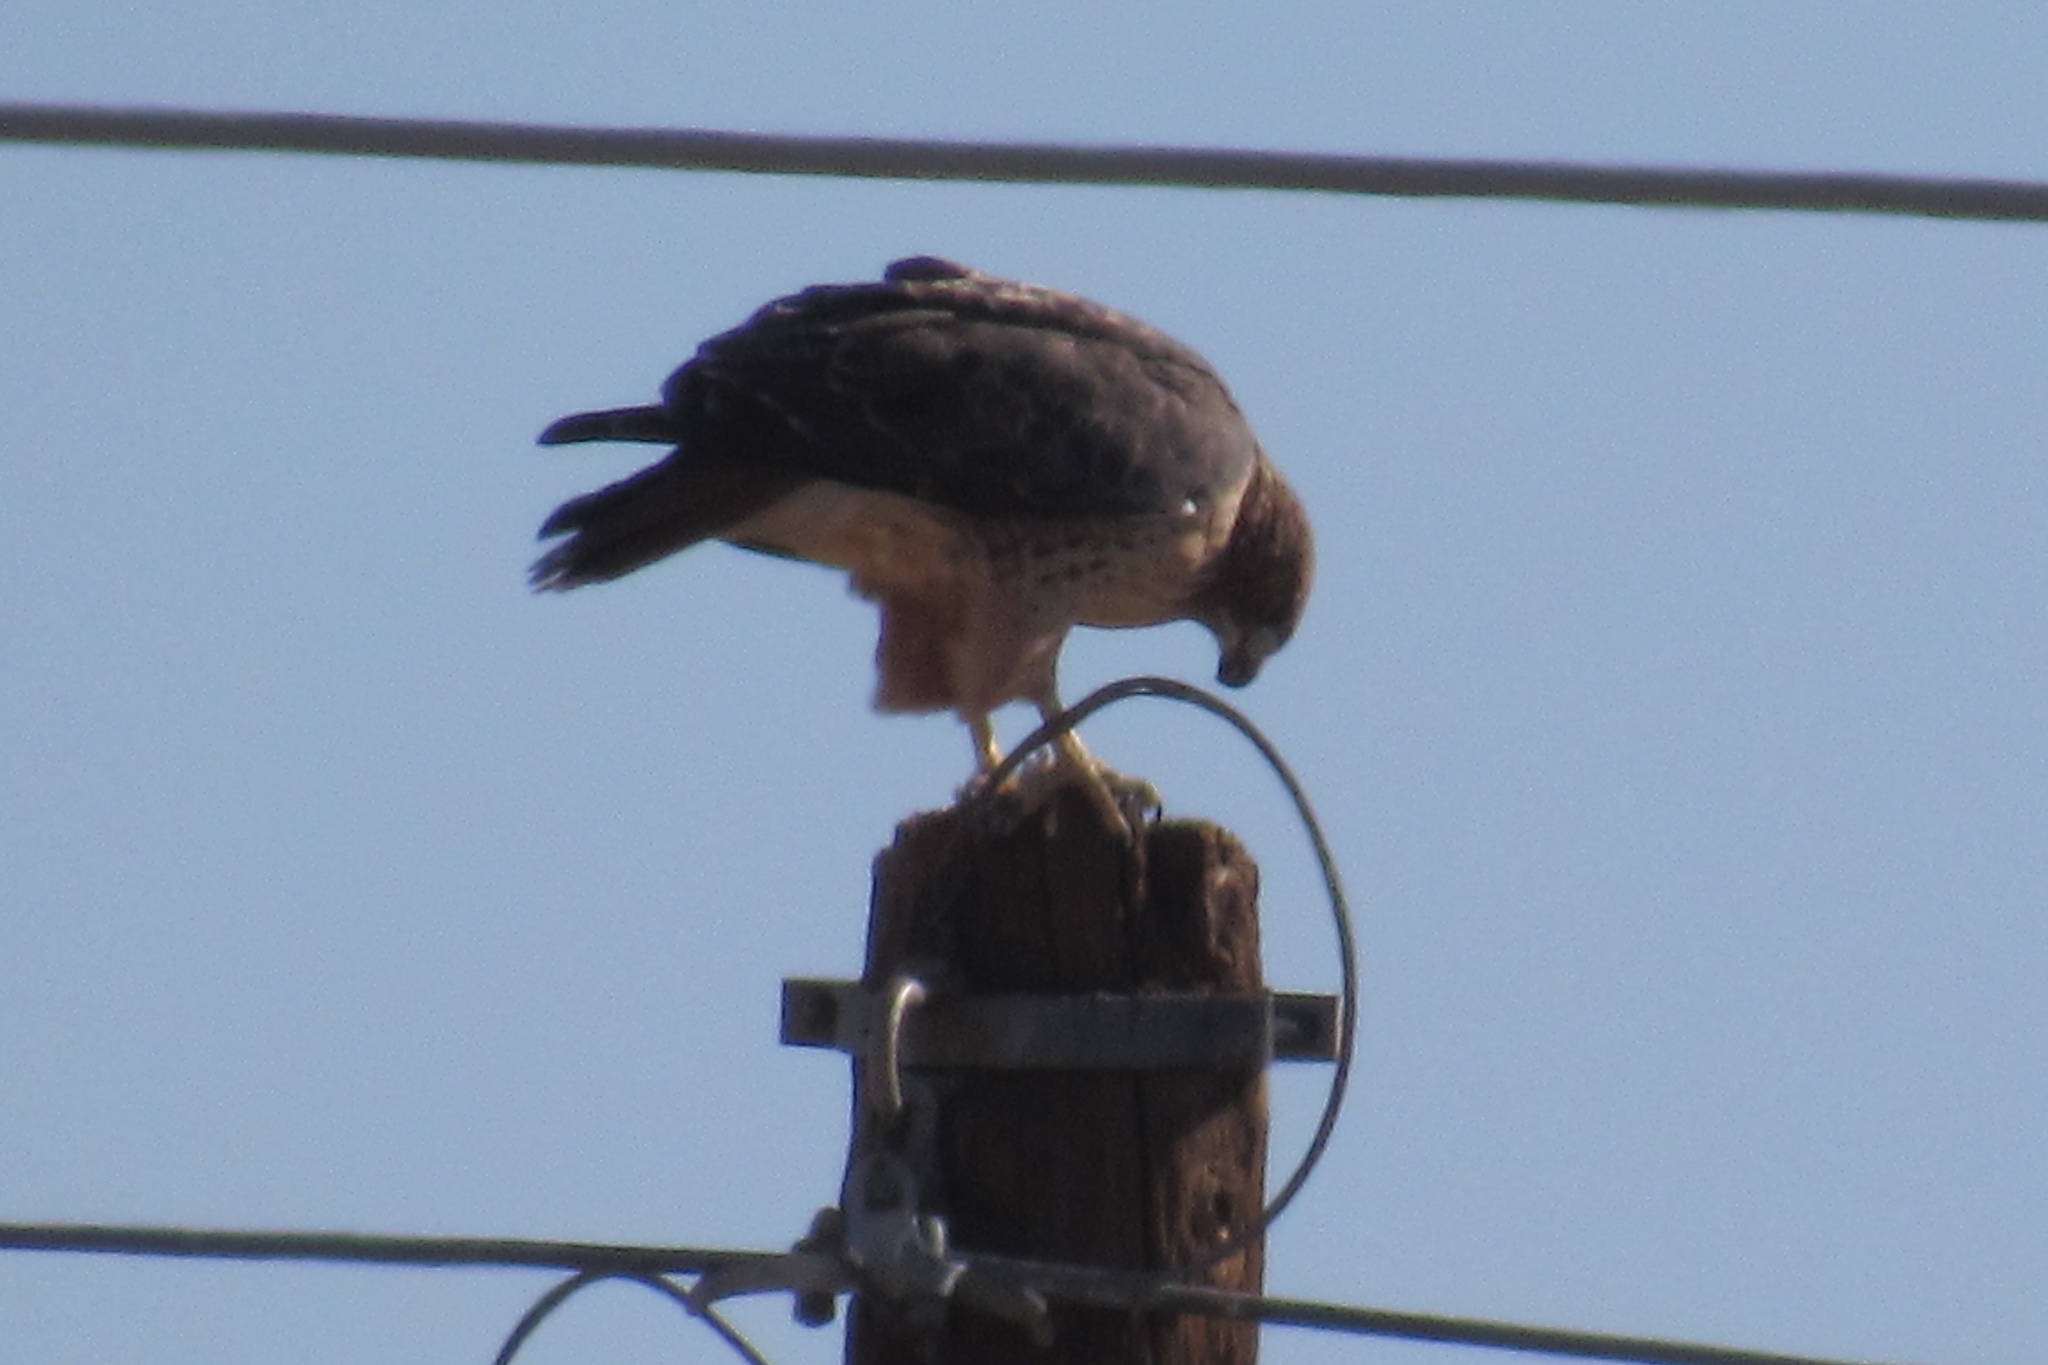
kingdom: Animalia
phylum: Chordata
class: Aves
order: Accipitriformes
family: Accipitridae
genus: Buteo
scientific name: Buteo jamaicensis
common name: Red-tailed hawk
